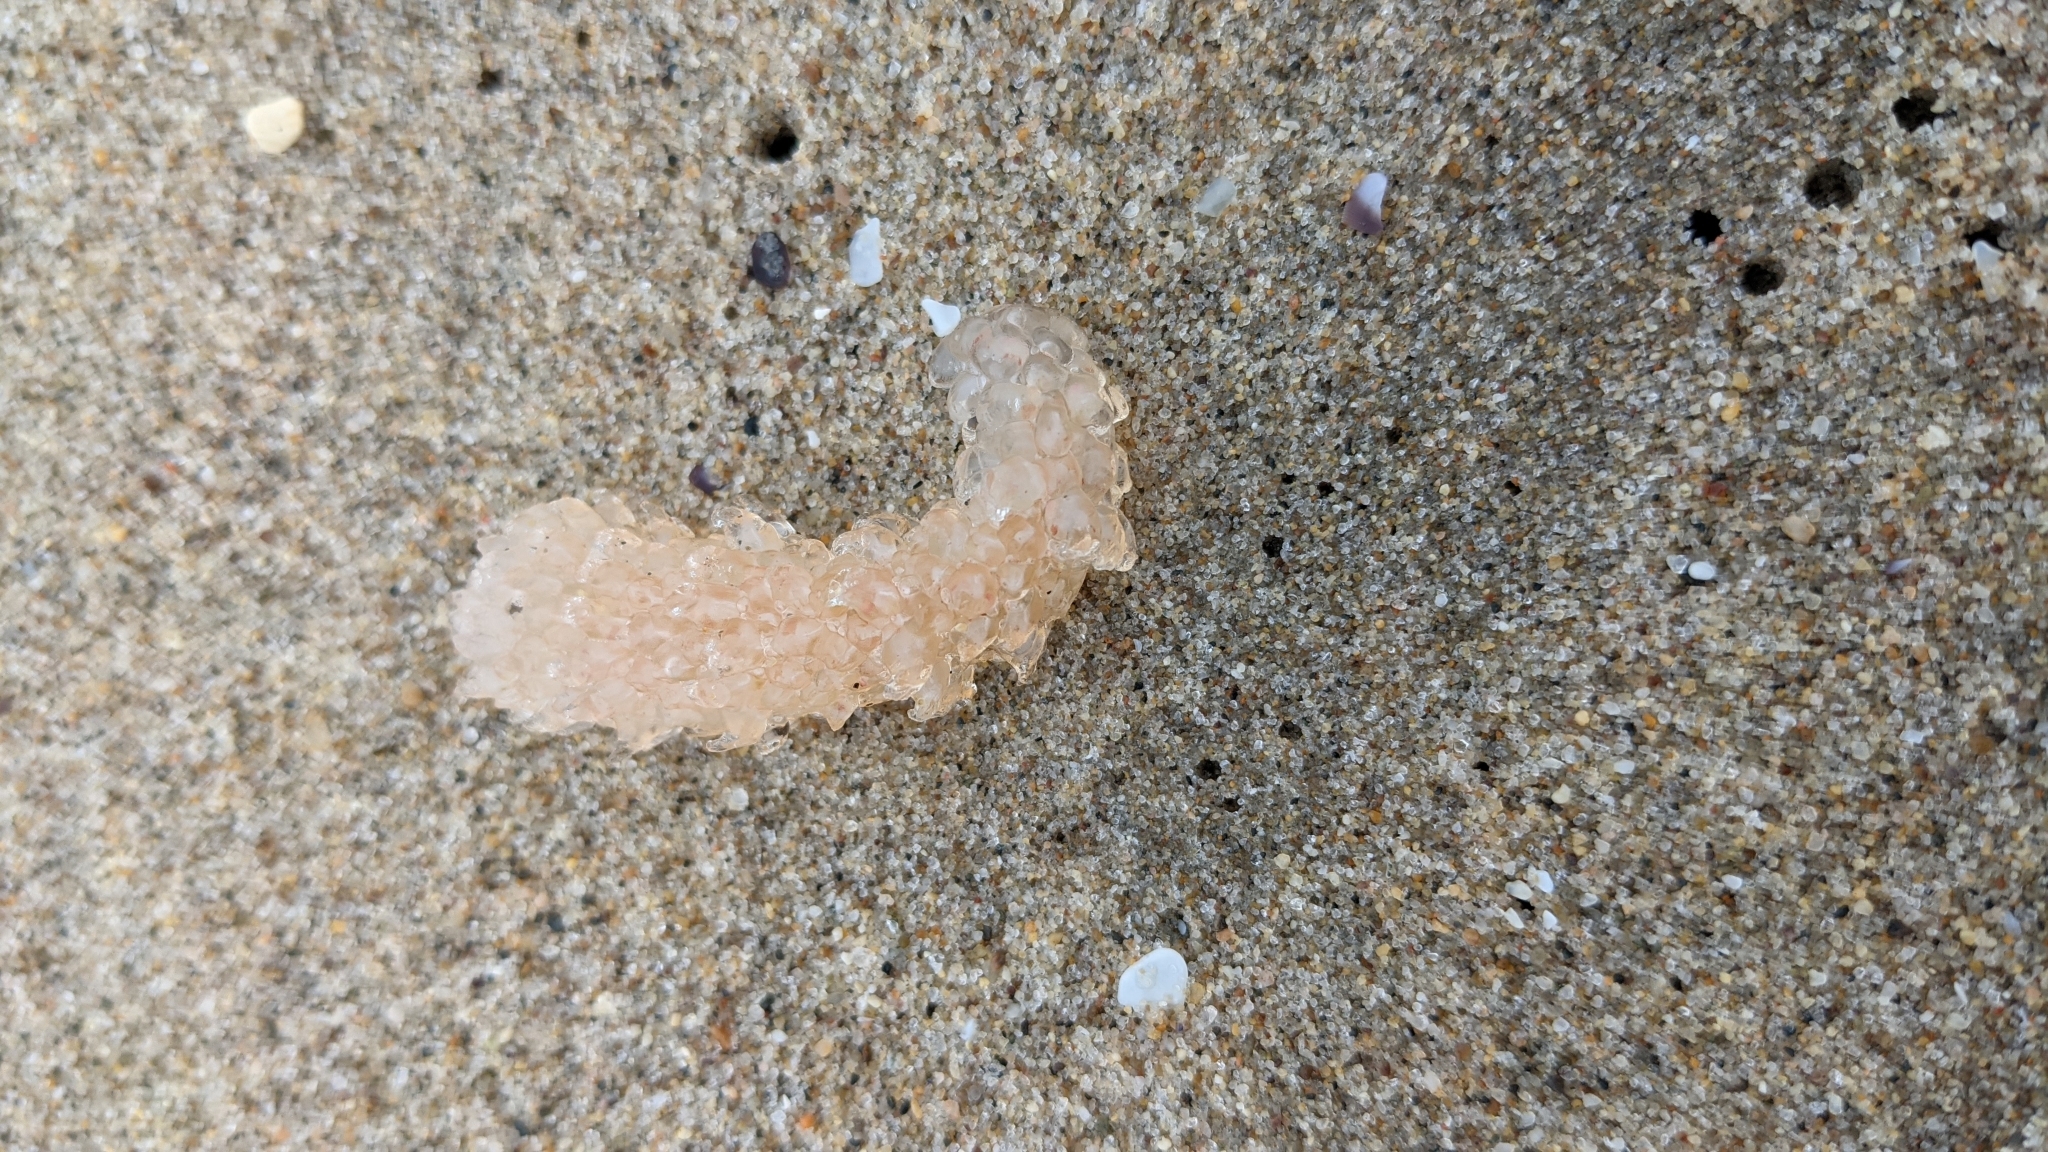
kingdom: Animalia
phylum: Chordata
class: Thaliacea
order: Pyrosomatida
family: Pyrosomatidae
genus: Pyrosoma
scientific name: Pyrosoma atlanticum
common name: Atlantic pyrosomes
